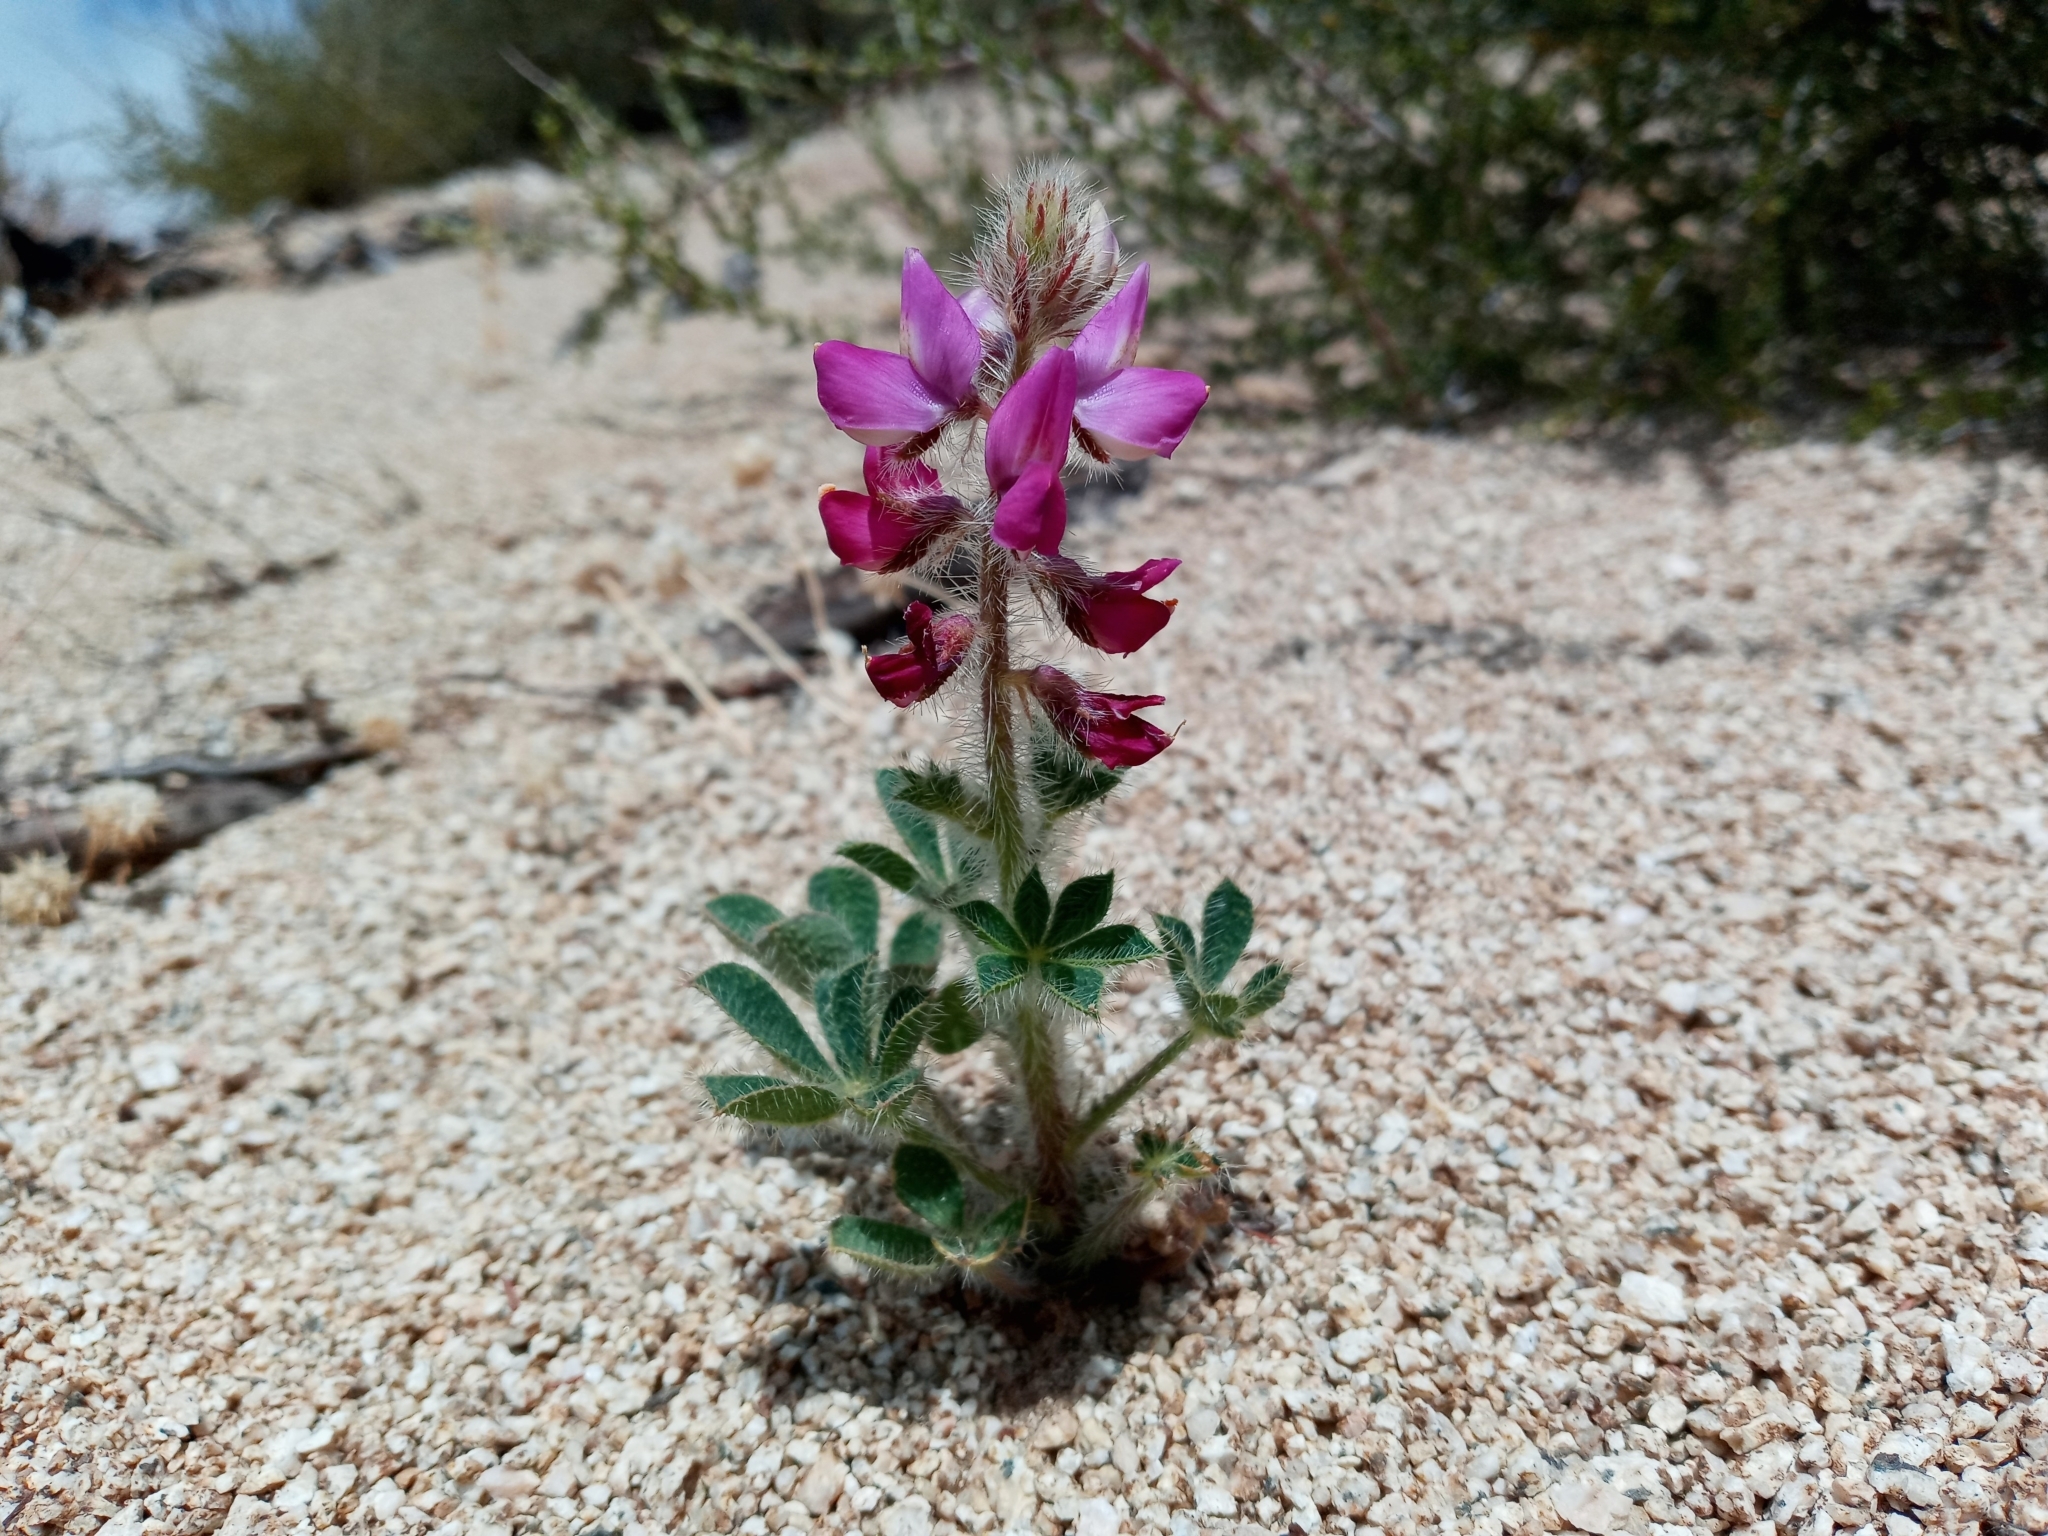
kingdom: Plantae
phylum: Tracheophyta
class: Magnoliopsida
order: Fabales
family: Fabaceae
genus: Lupinus
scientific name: Lupinus hirsutissimus
